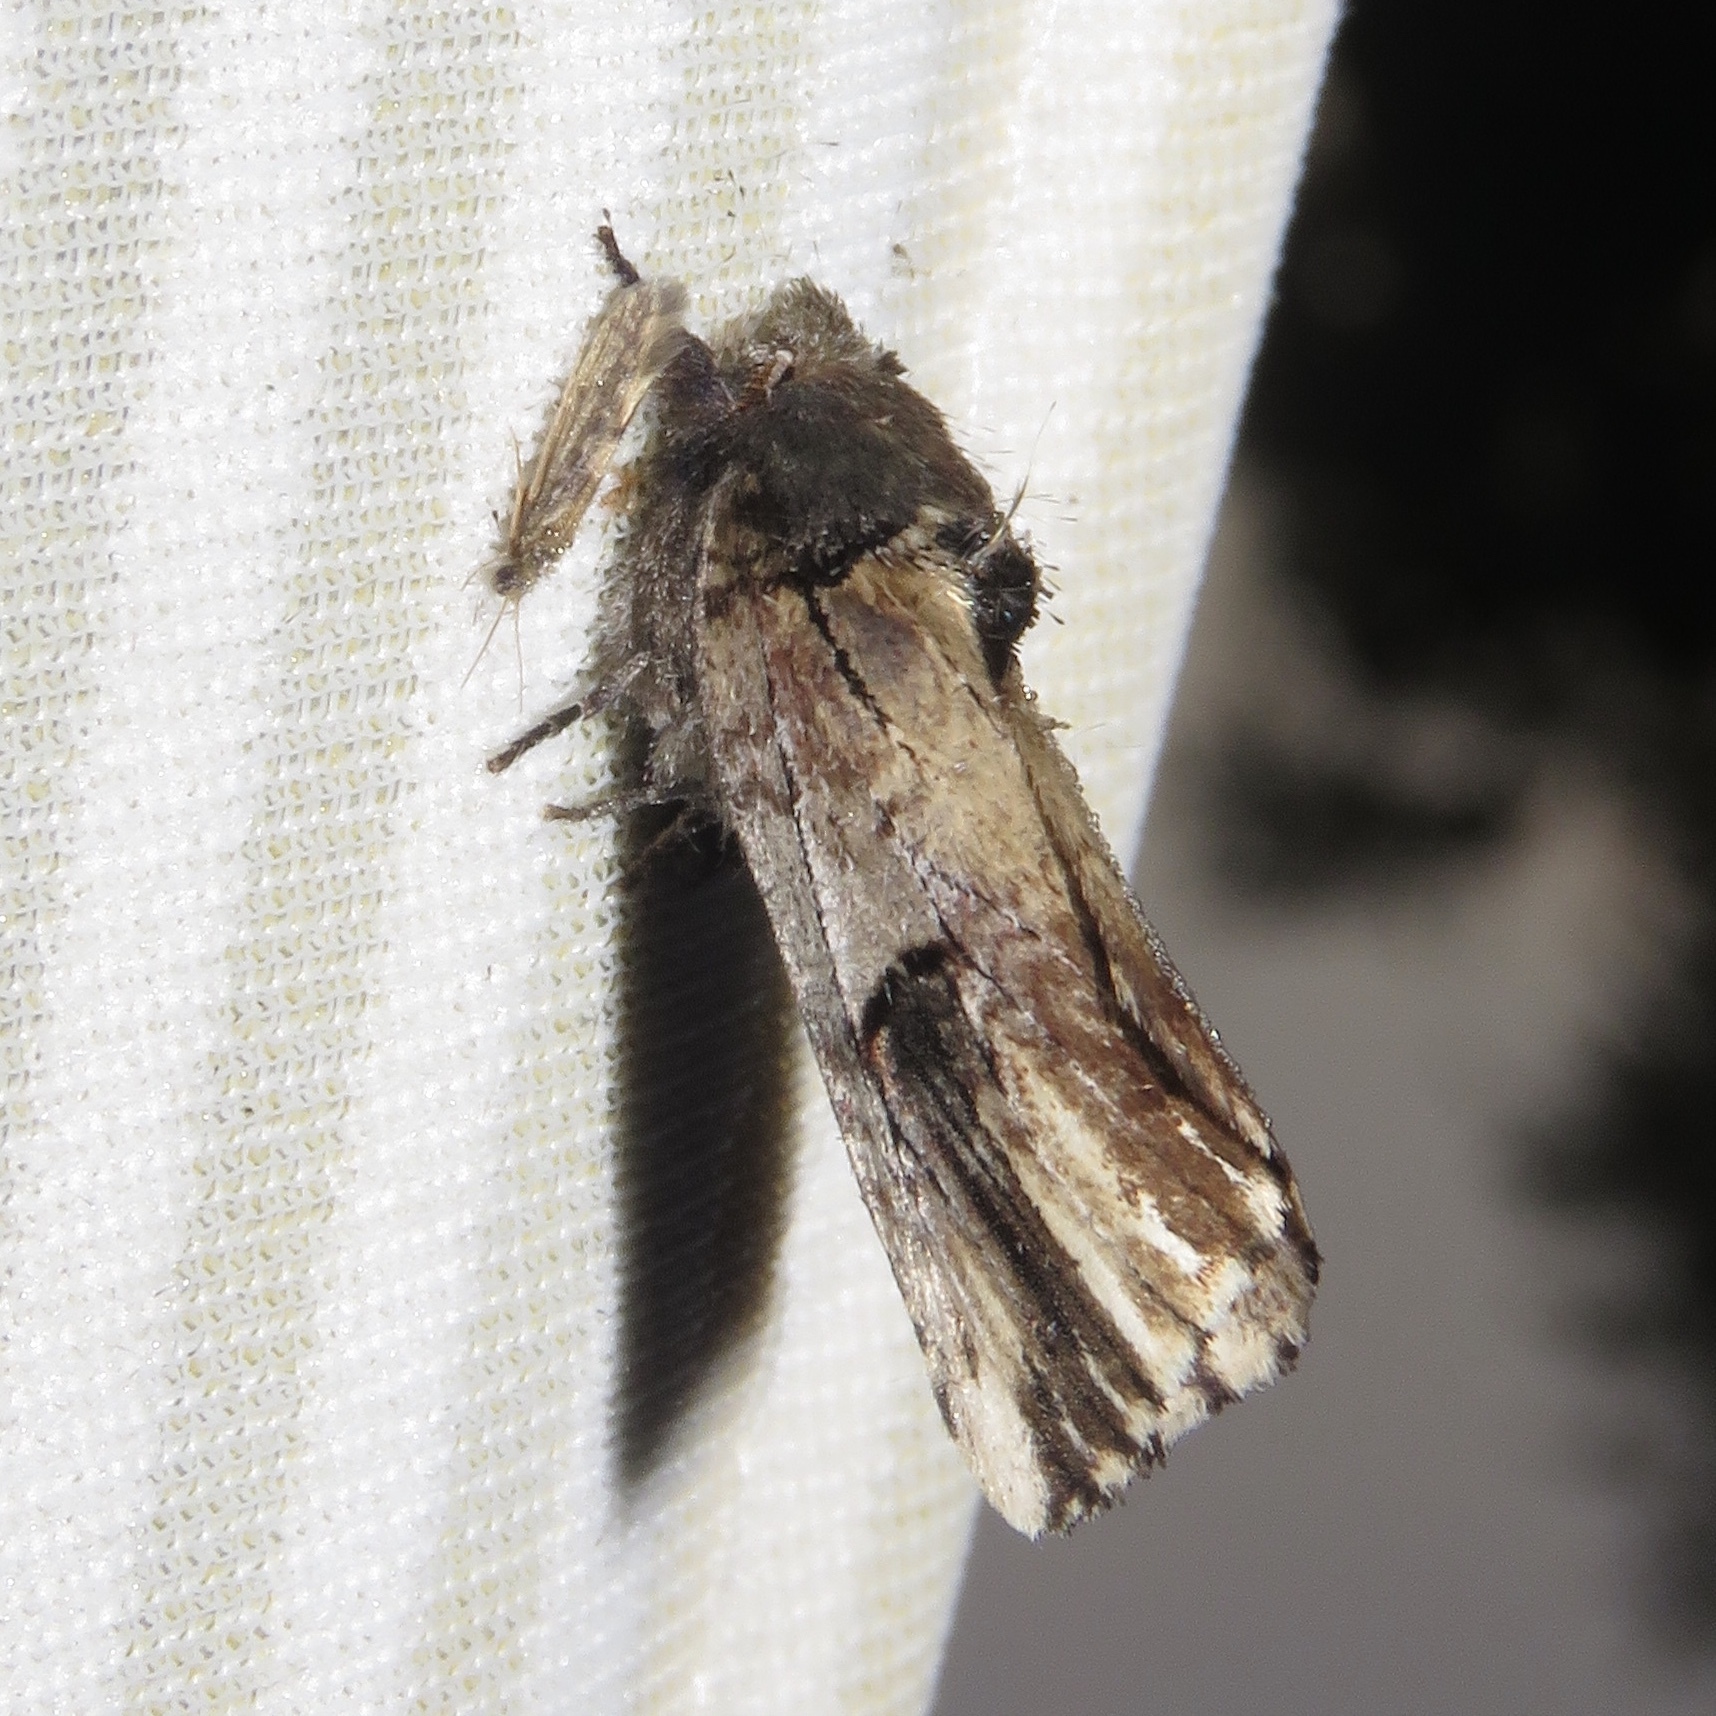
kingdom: Animalia
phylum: Arthropoda
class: Insecta
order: Lepidoptera
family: Notodontidae
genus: Schizura
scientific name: Schizura badia
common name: Chestnut schizura
